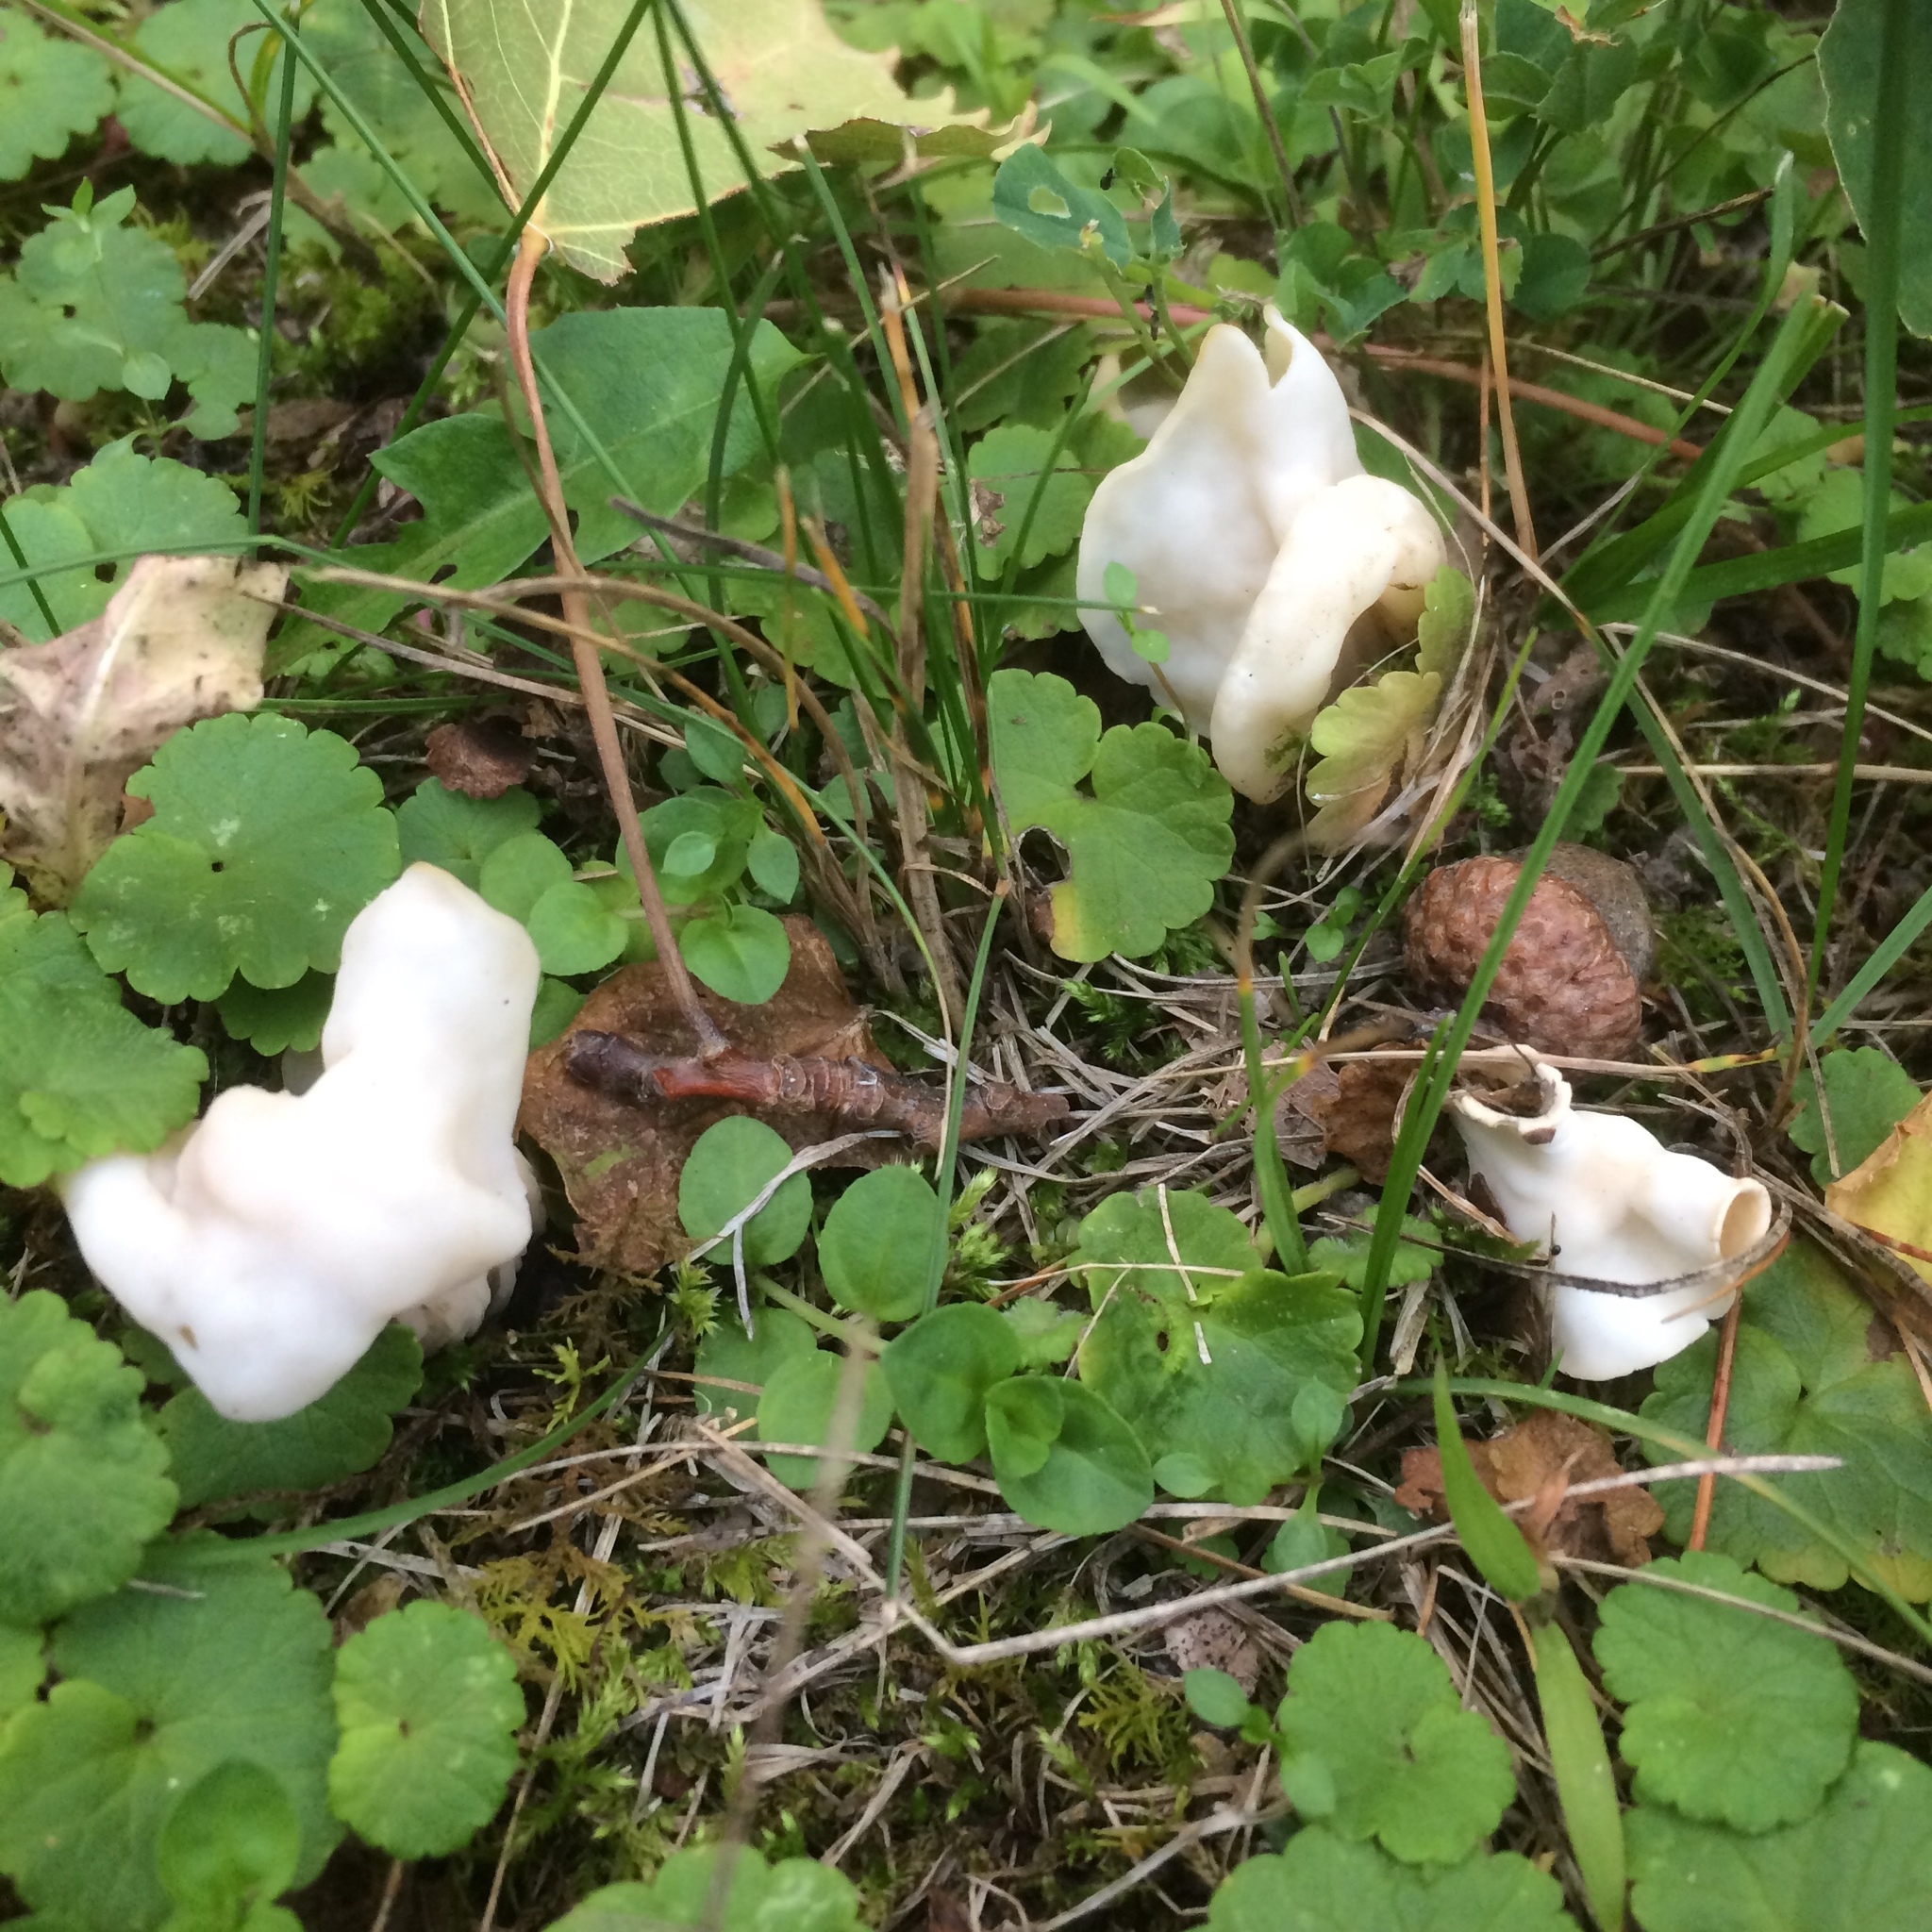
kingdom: Fungi
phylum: Ascomycota
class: Pezizomycetes
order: Pezizales
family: Helvellaceae
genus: Helvella
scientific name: Helvella crispa
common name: White saddle
